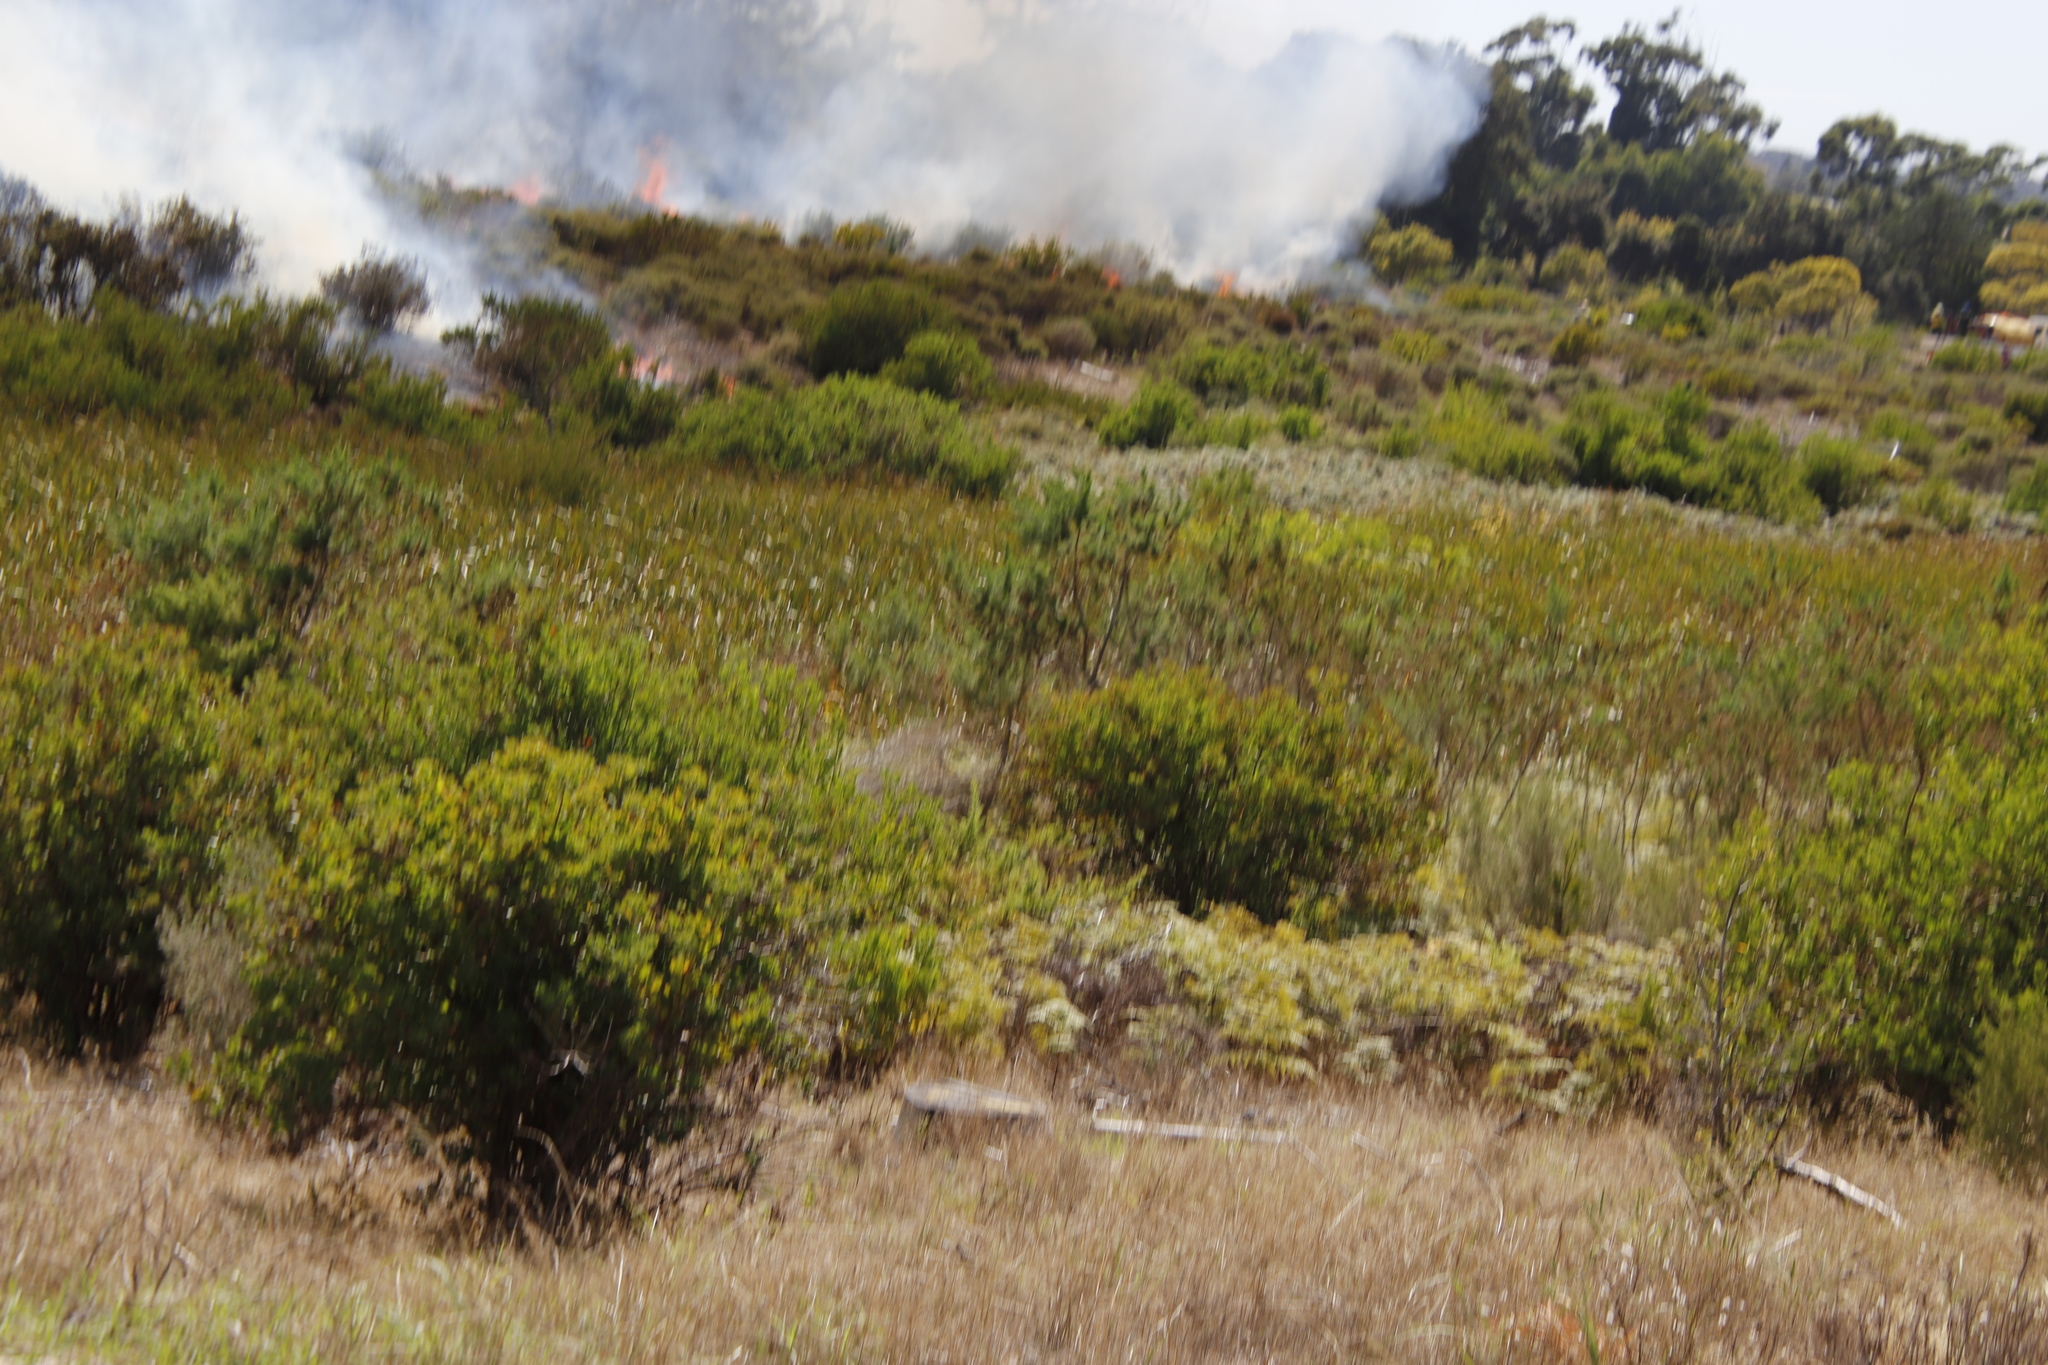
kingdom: Plantae
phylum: Tracheophyta
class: Magnoliopsida
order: Asterales
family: Asteraceae
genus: Osteospermum
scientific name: Osteospermum moniliferum
